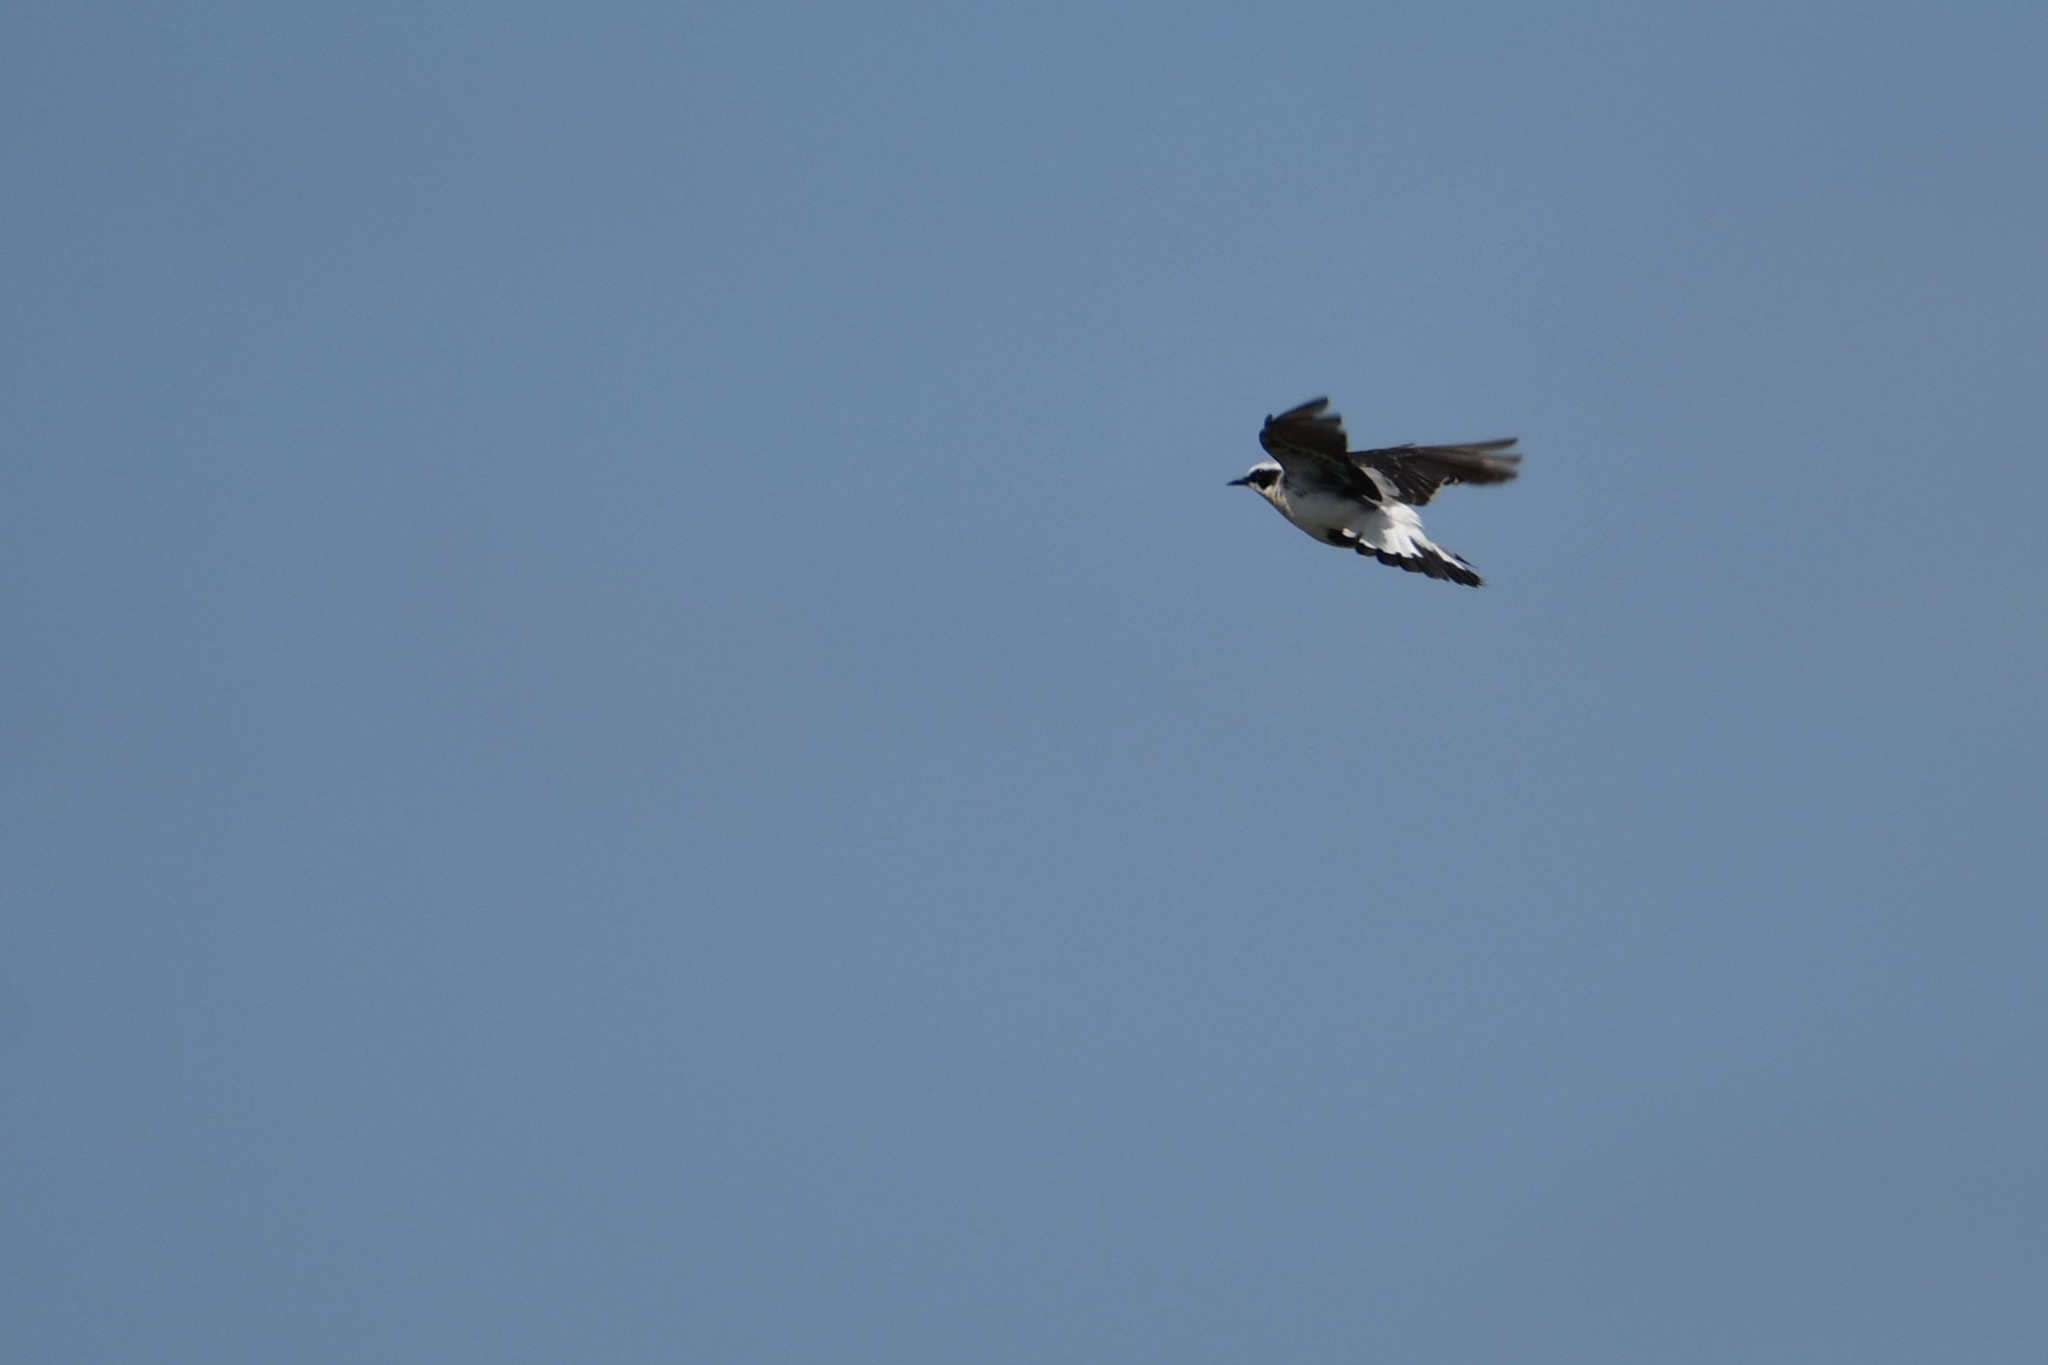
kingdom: Animalia
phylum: Chordata
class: Aves
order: Passeriformes
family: Muscicapidae
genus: Oenanthe
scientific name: Oenanthe oenanthe
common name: Northern wheatear
